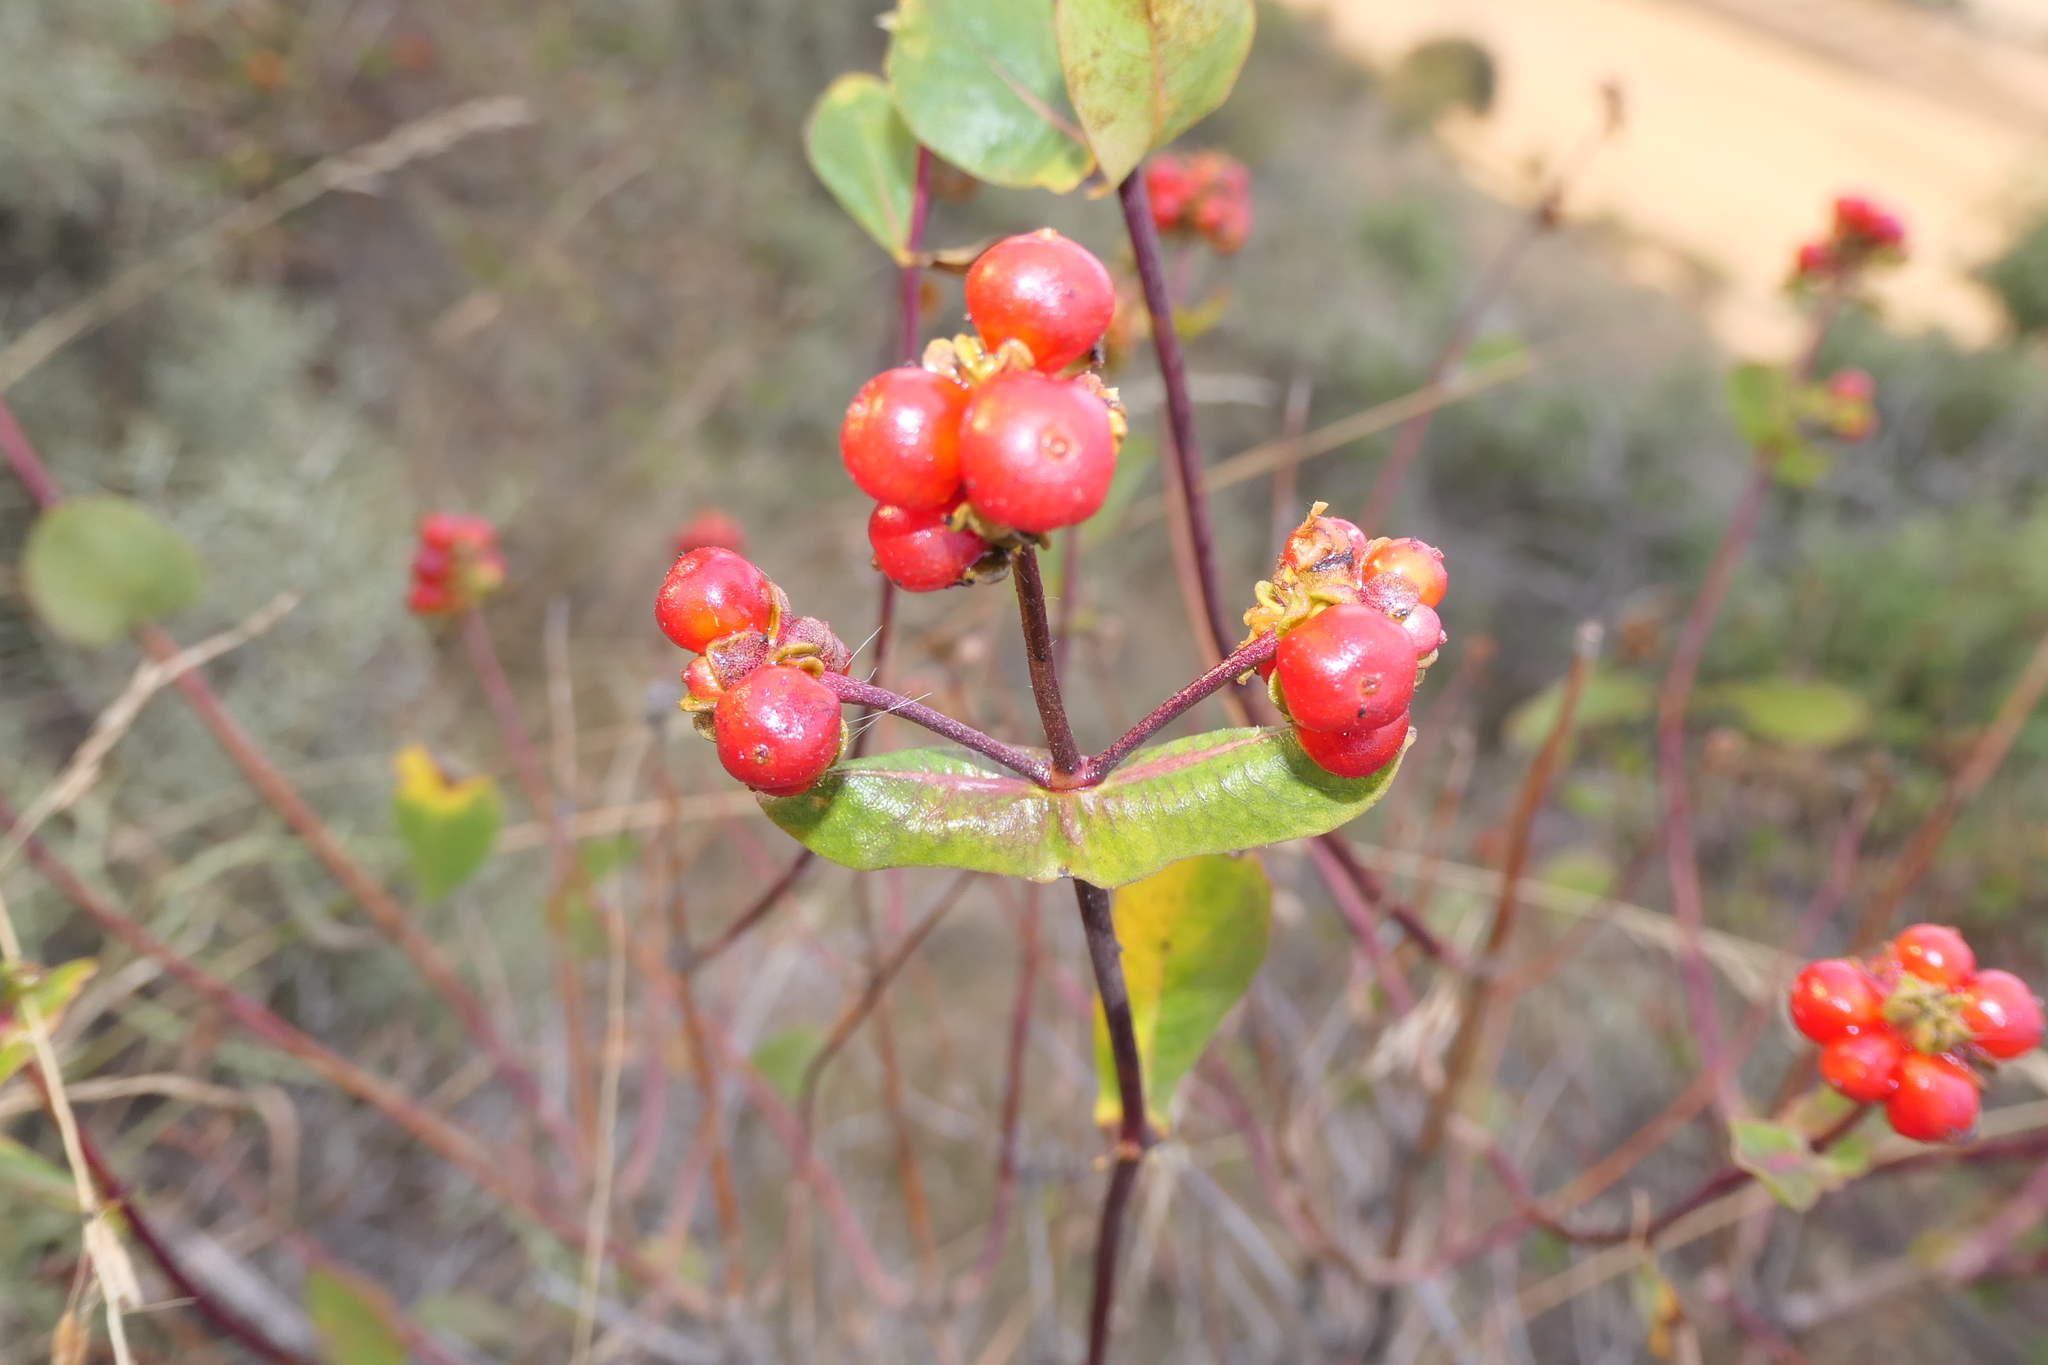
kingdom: Plantae
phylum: Tracheophyta
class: Magnoliopsida
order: Dipsacales
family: Caprifoliaceae
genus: Lonicera
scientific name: Lonicera etrusca
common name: Etruscan honeysuckle
